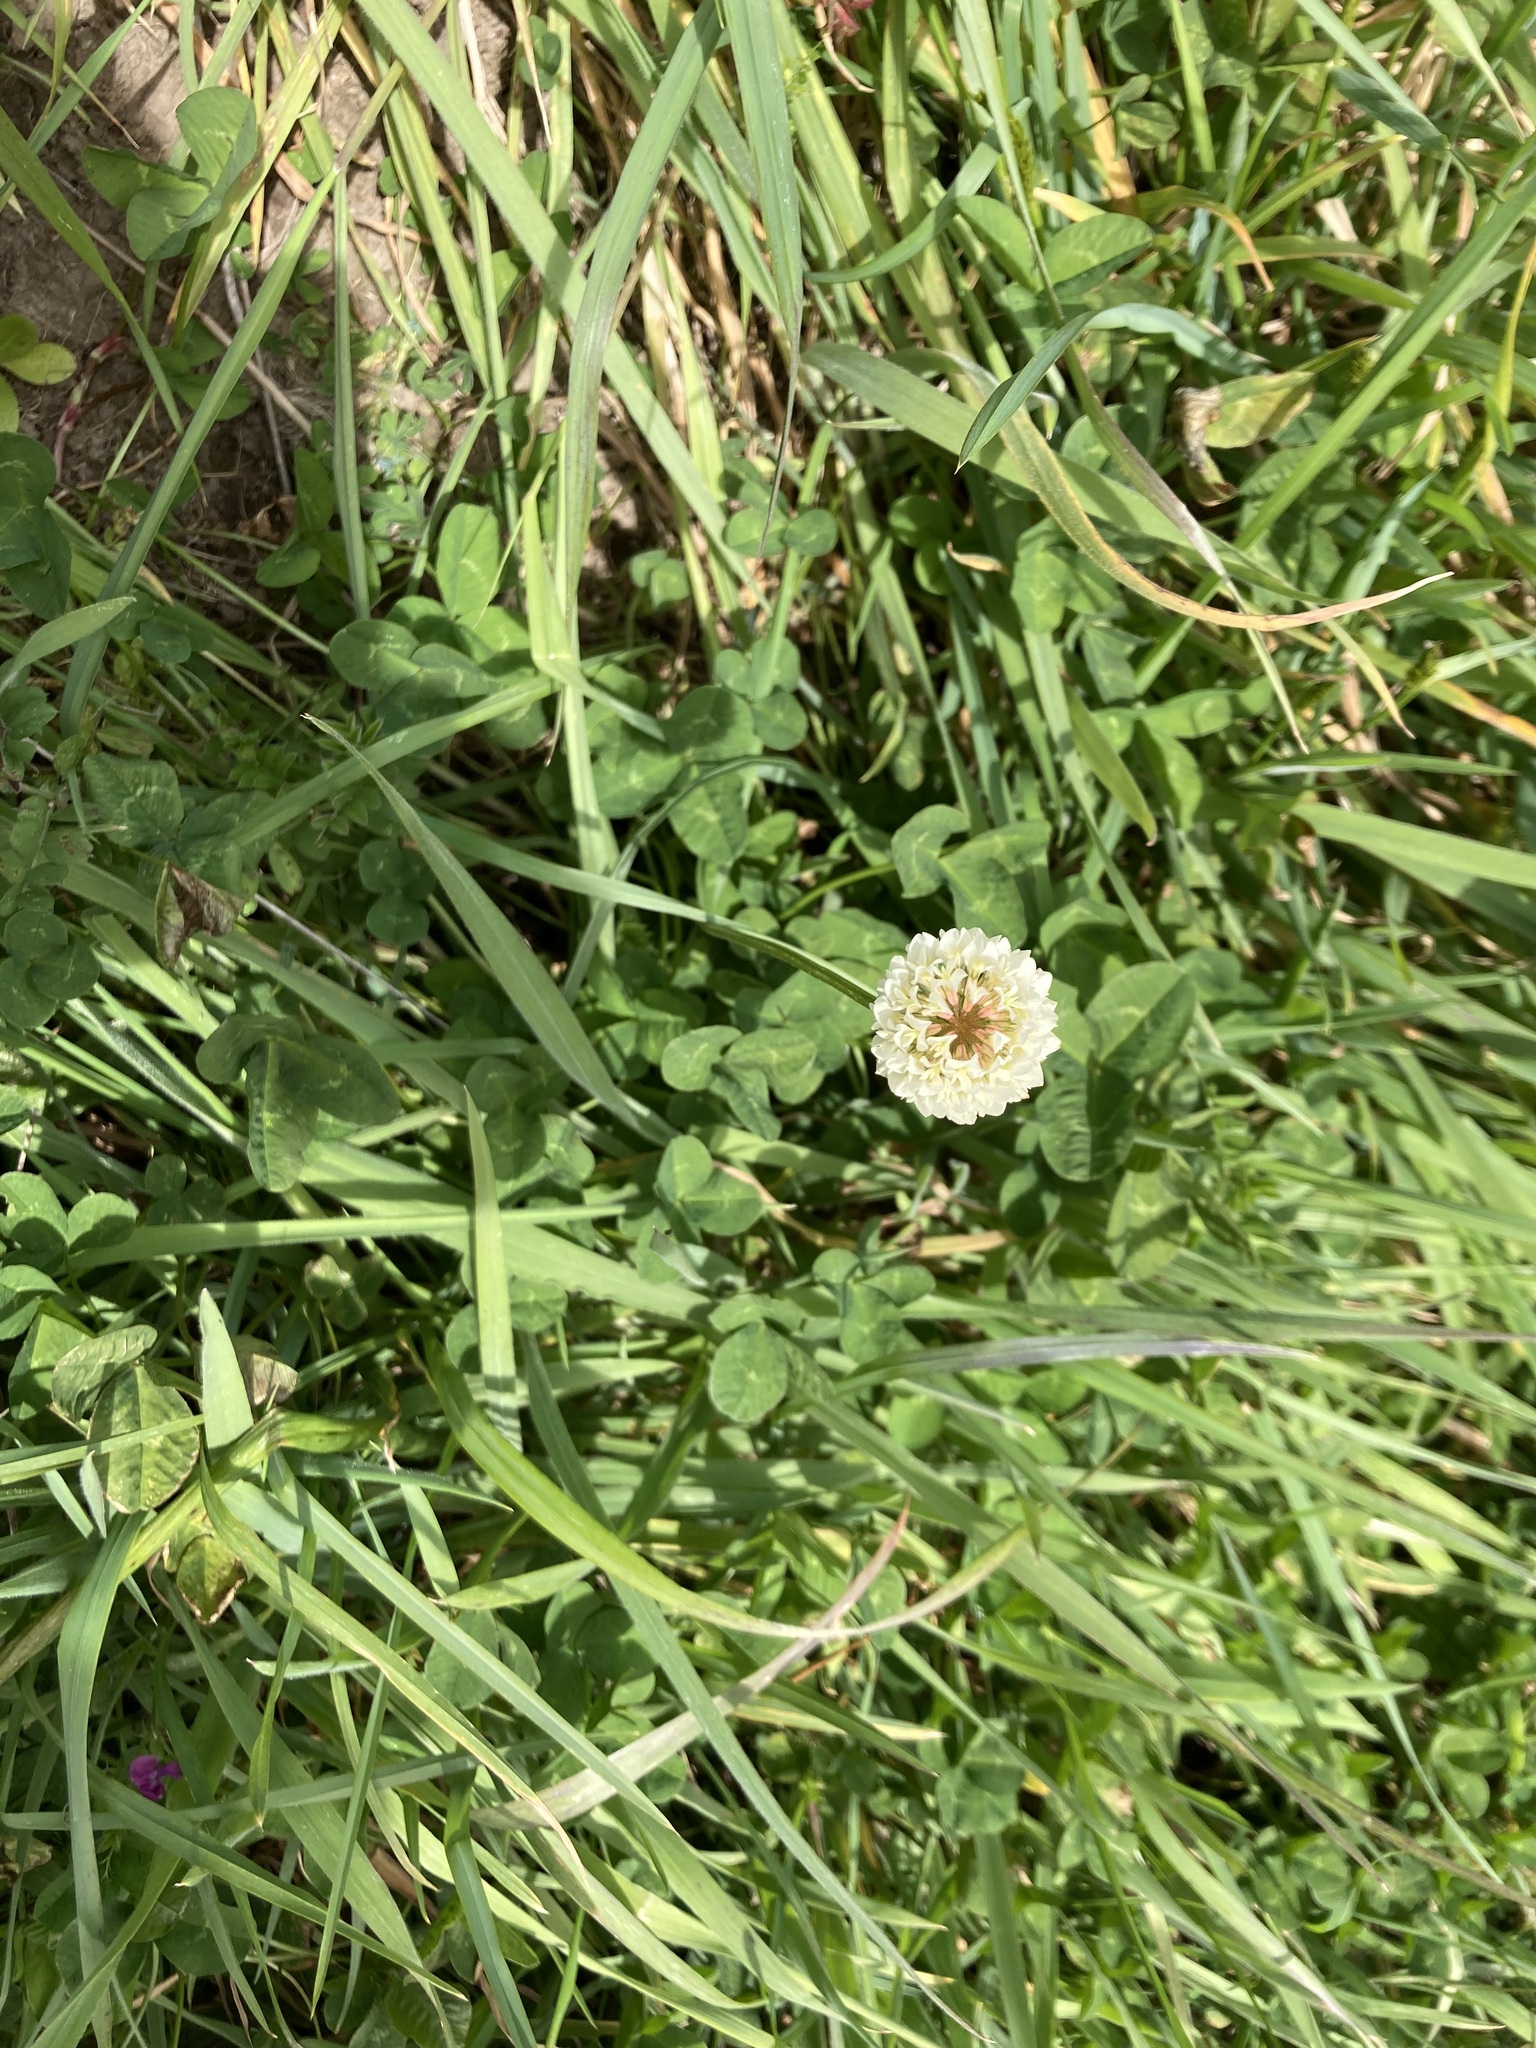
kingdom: Plantae
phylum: Tracheophyta
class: Magnoliopsida
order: Fabales
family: Fabaceae
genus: Trifolium
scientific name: Trifolium repens
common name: White clover
